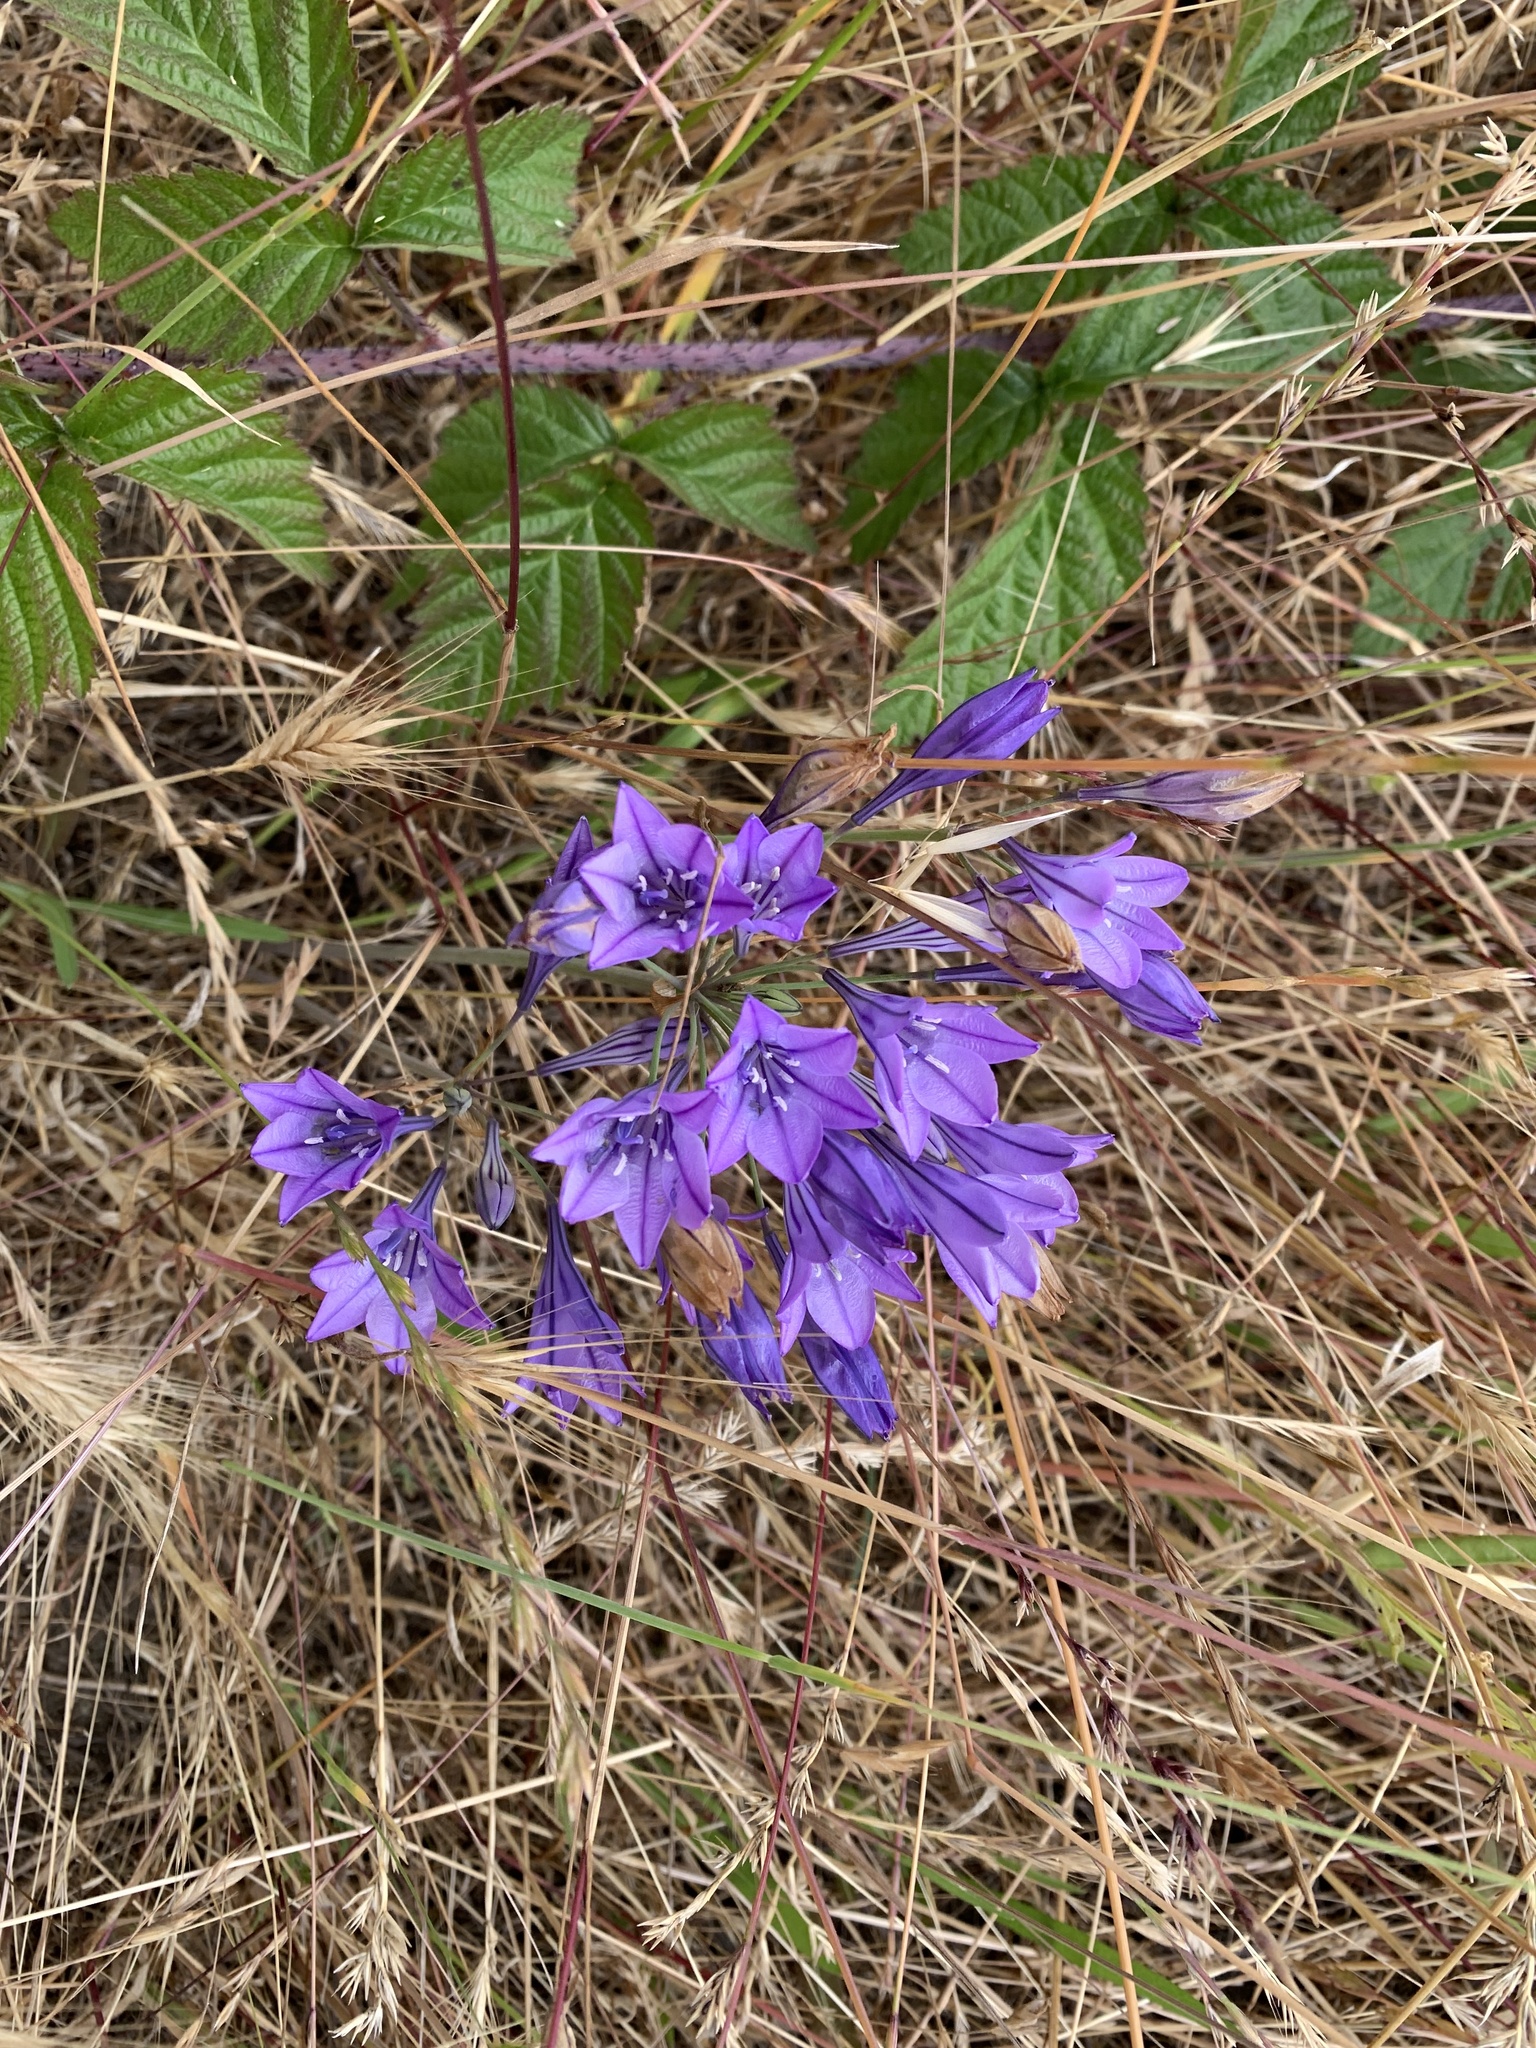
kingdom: Plantae
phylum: Tracheophyta
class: Liliopsida
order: Asparagales
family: Asparagaceae
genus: Triteleia
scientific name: Triteleia laxa
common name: Triplet-lily
